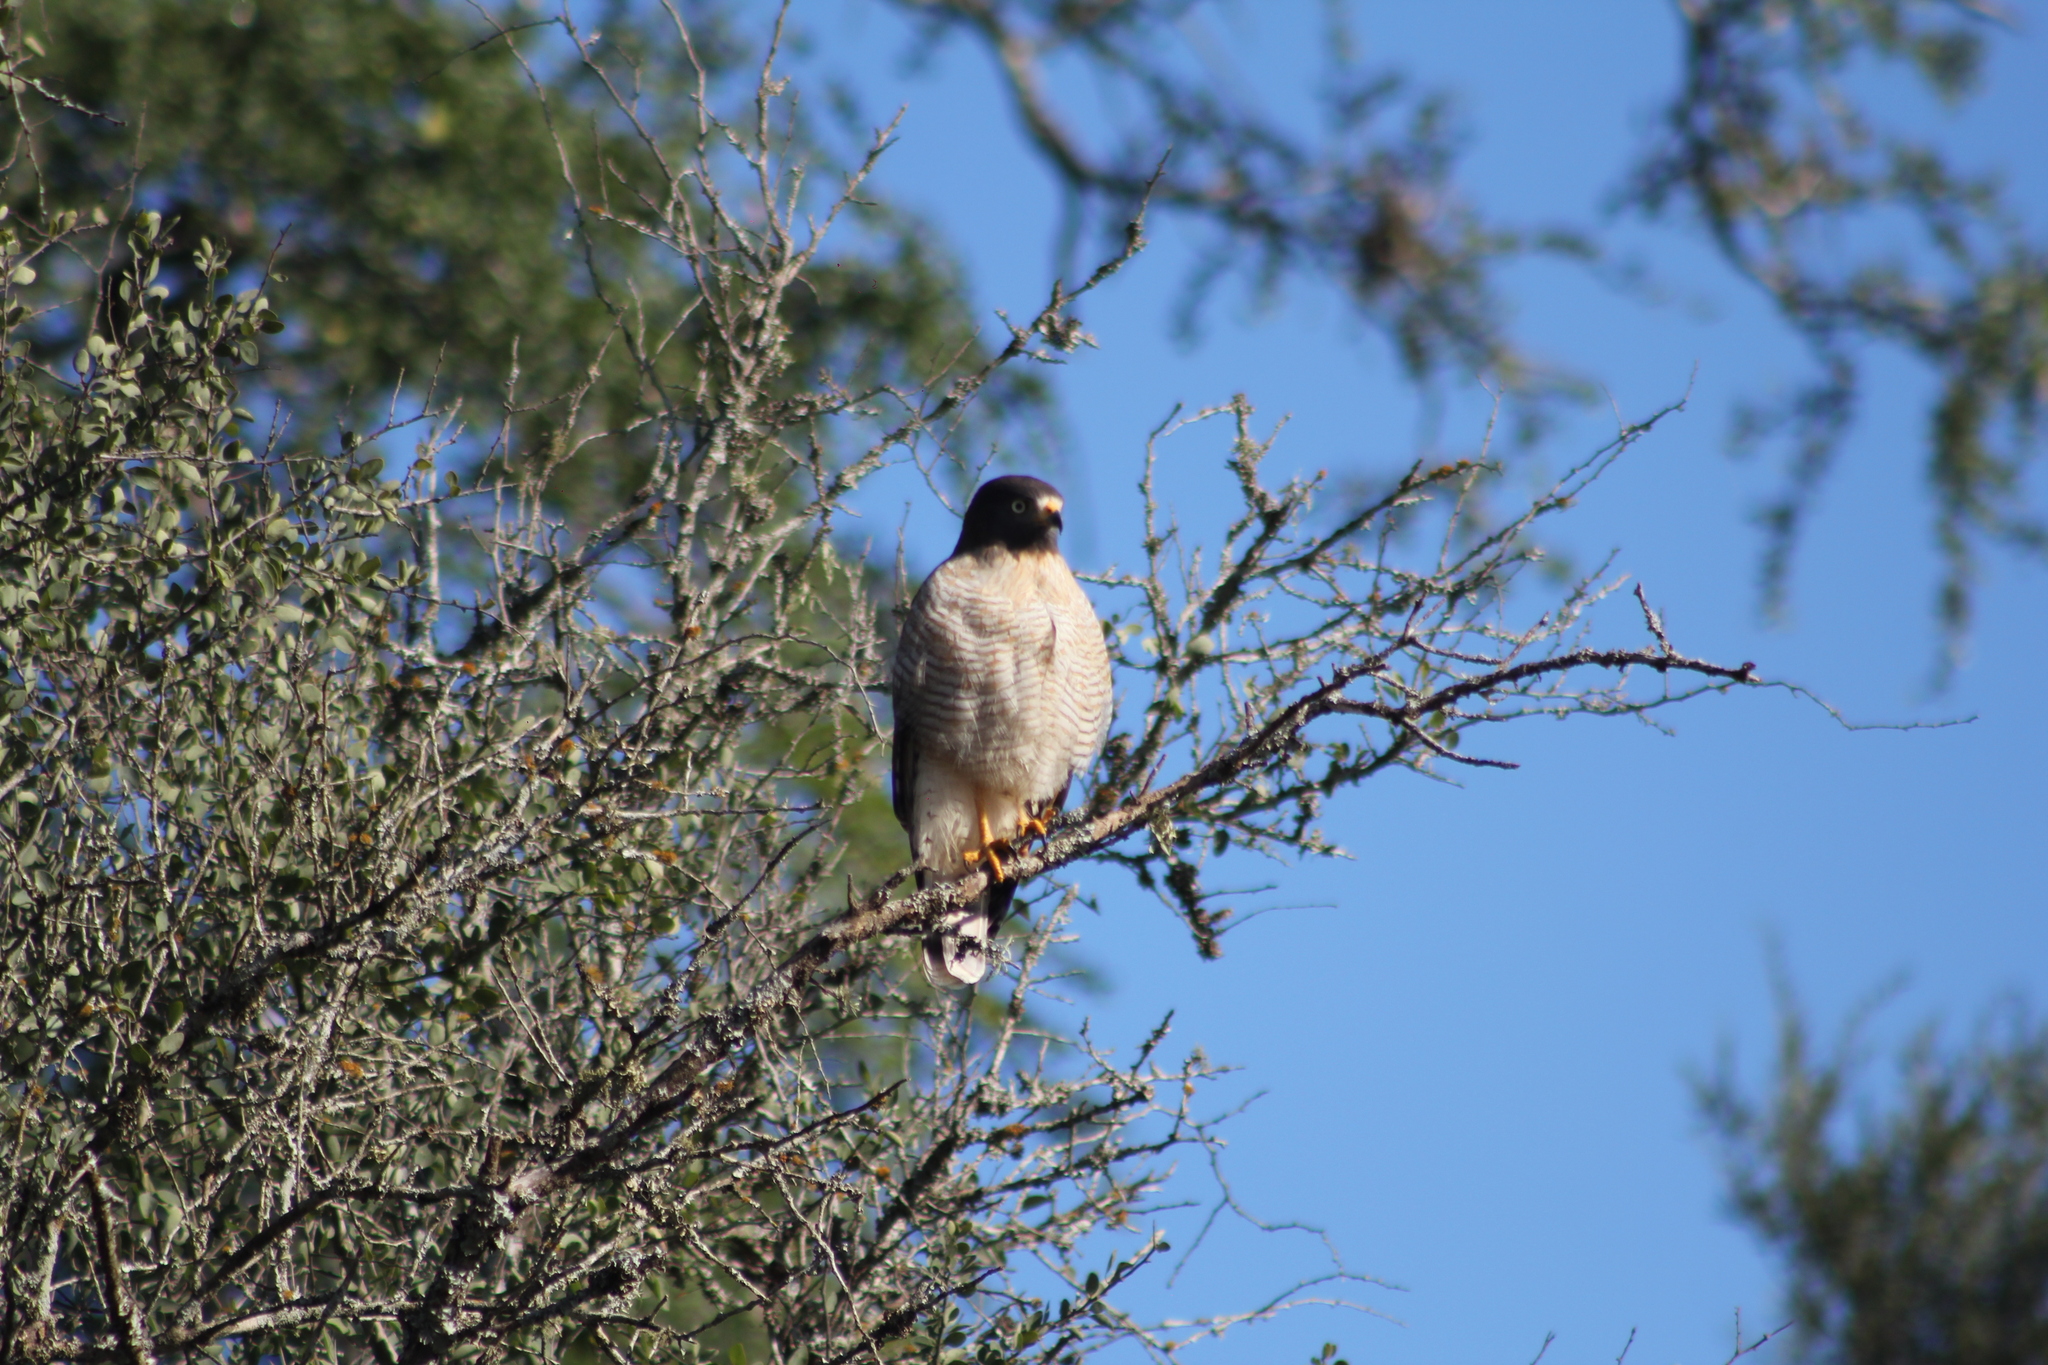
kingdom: Animalia
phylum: Chordata
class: Aves
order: Accipitriformes
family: Accipitridae
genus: Rupornis
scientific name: Rupornis magnirostris
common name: Roadside hawk
